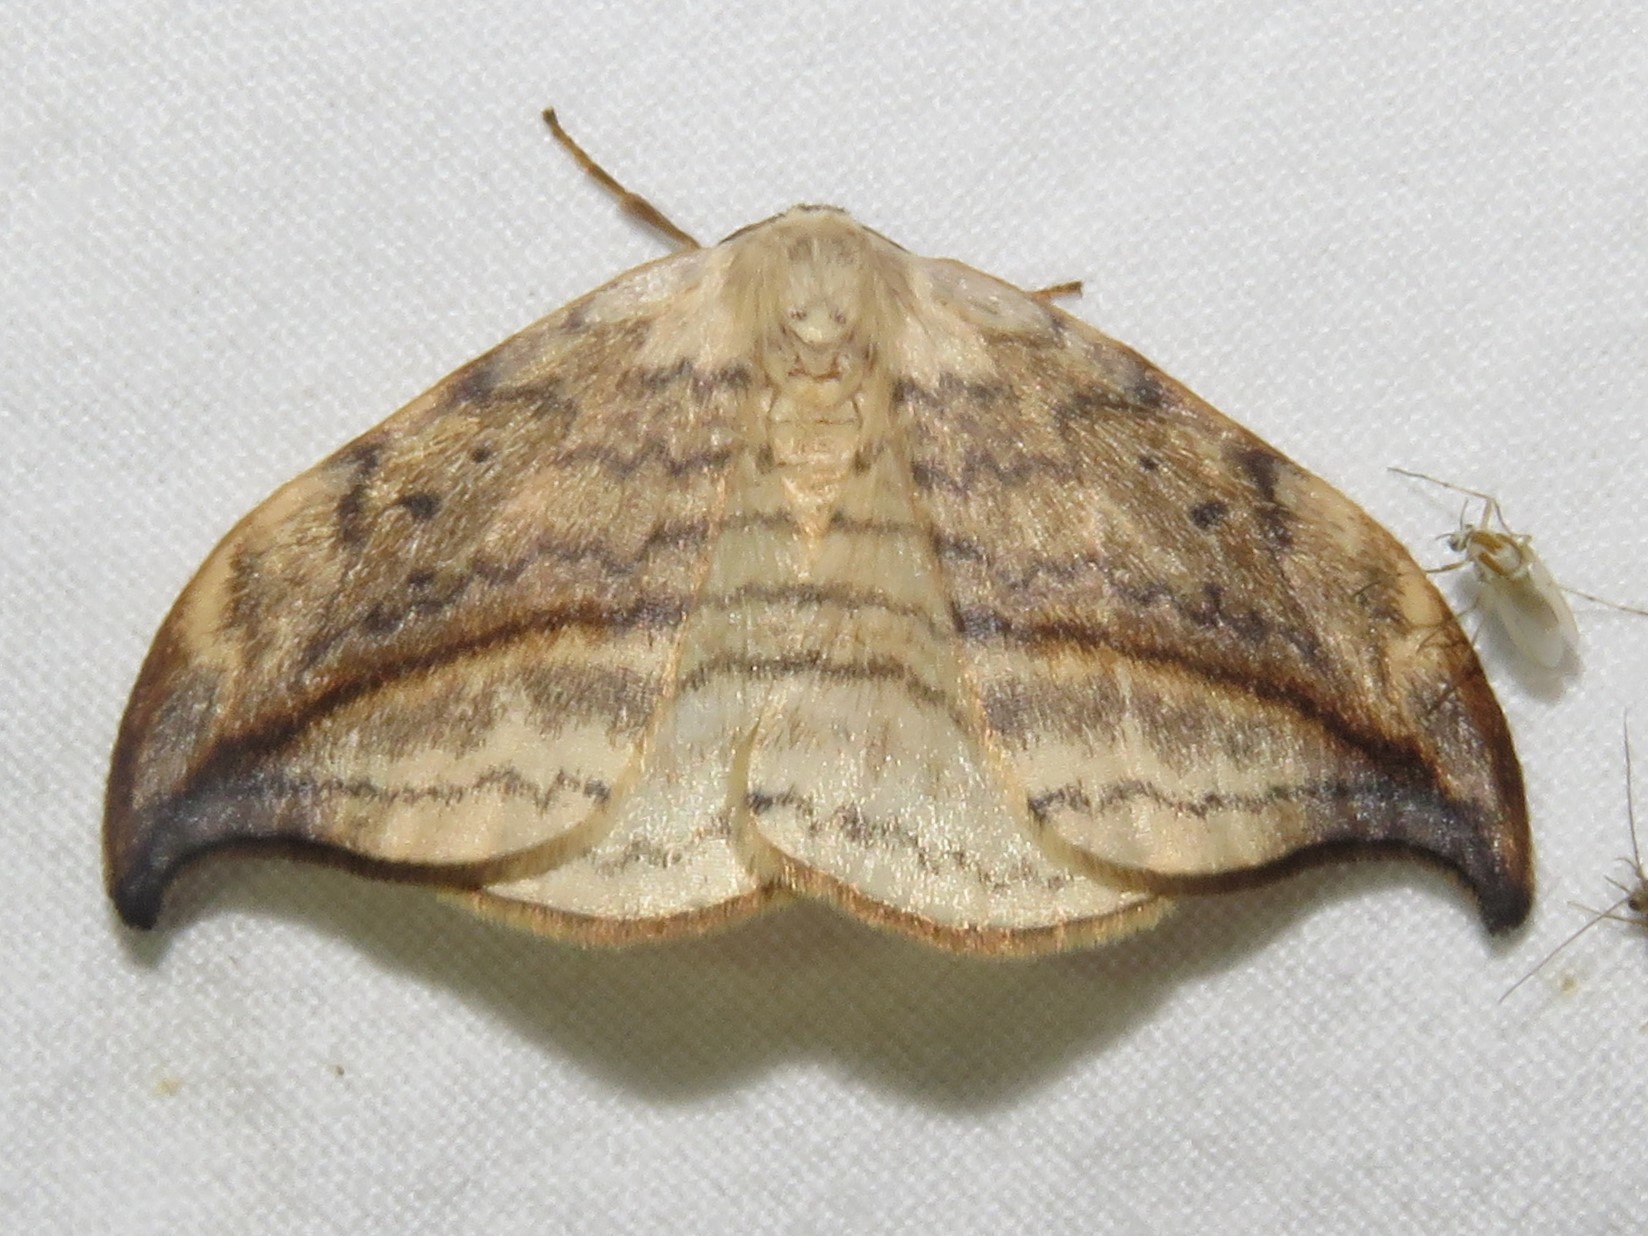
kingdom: Animalia
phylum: Arthropoda
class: Insecta
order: Lepidoptera
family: Drepanidae
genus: Drepana
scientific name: Drepana arcuata
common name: Arched hooktip moth
